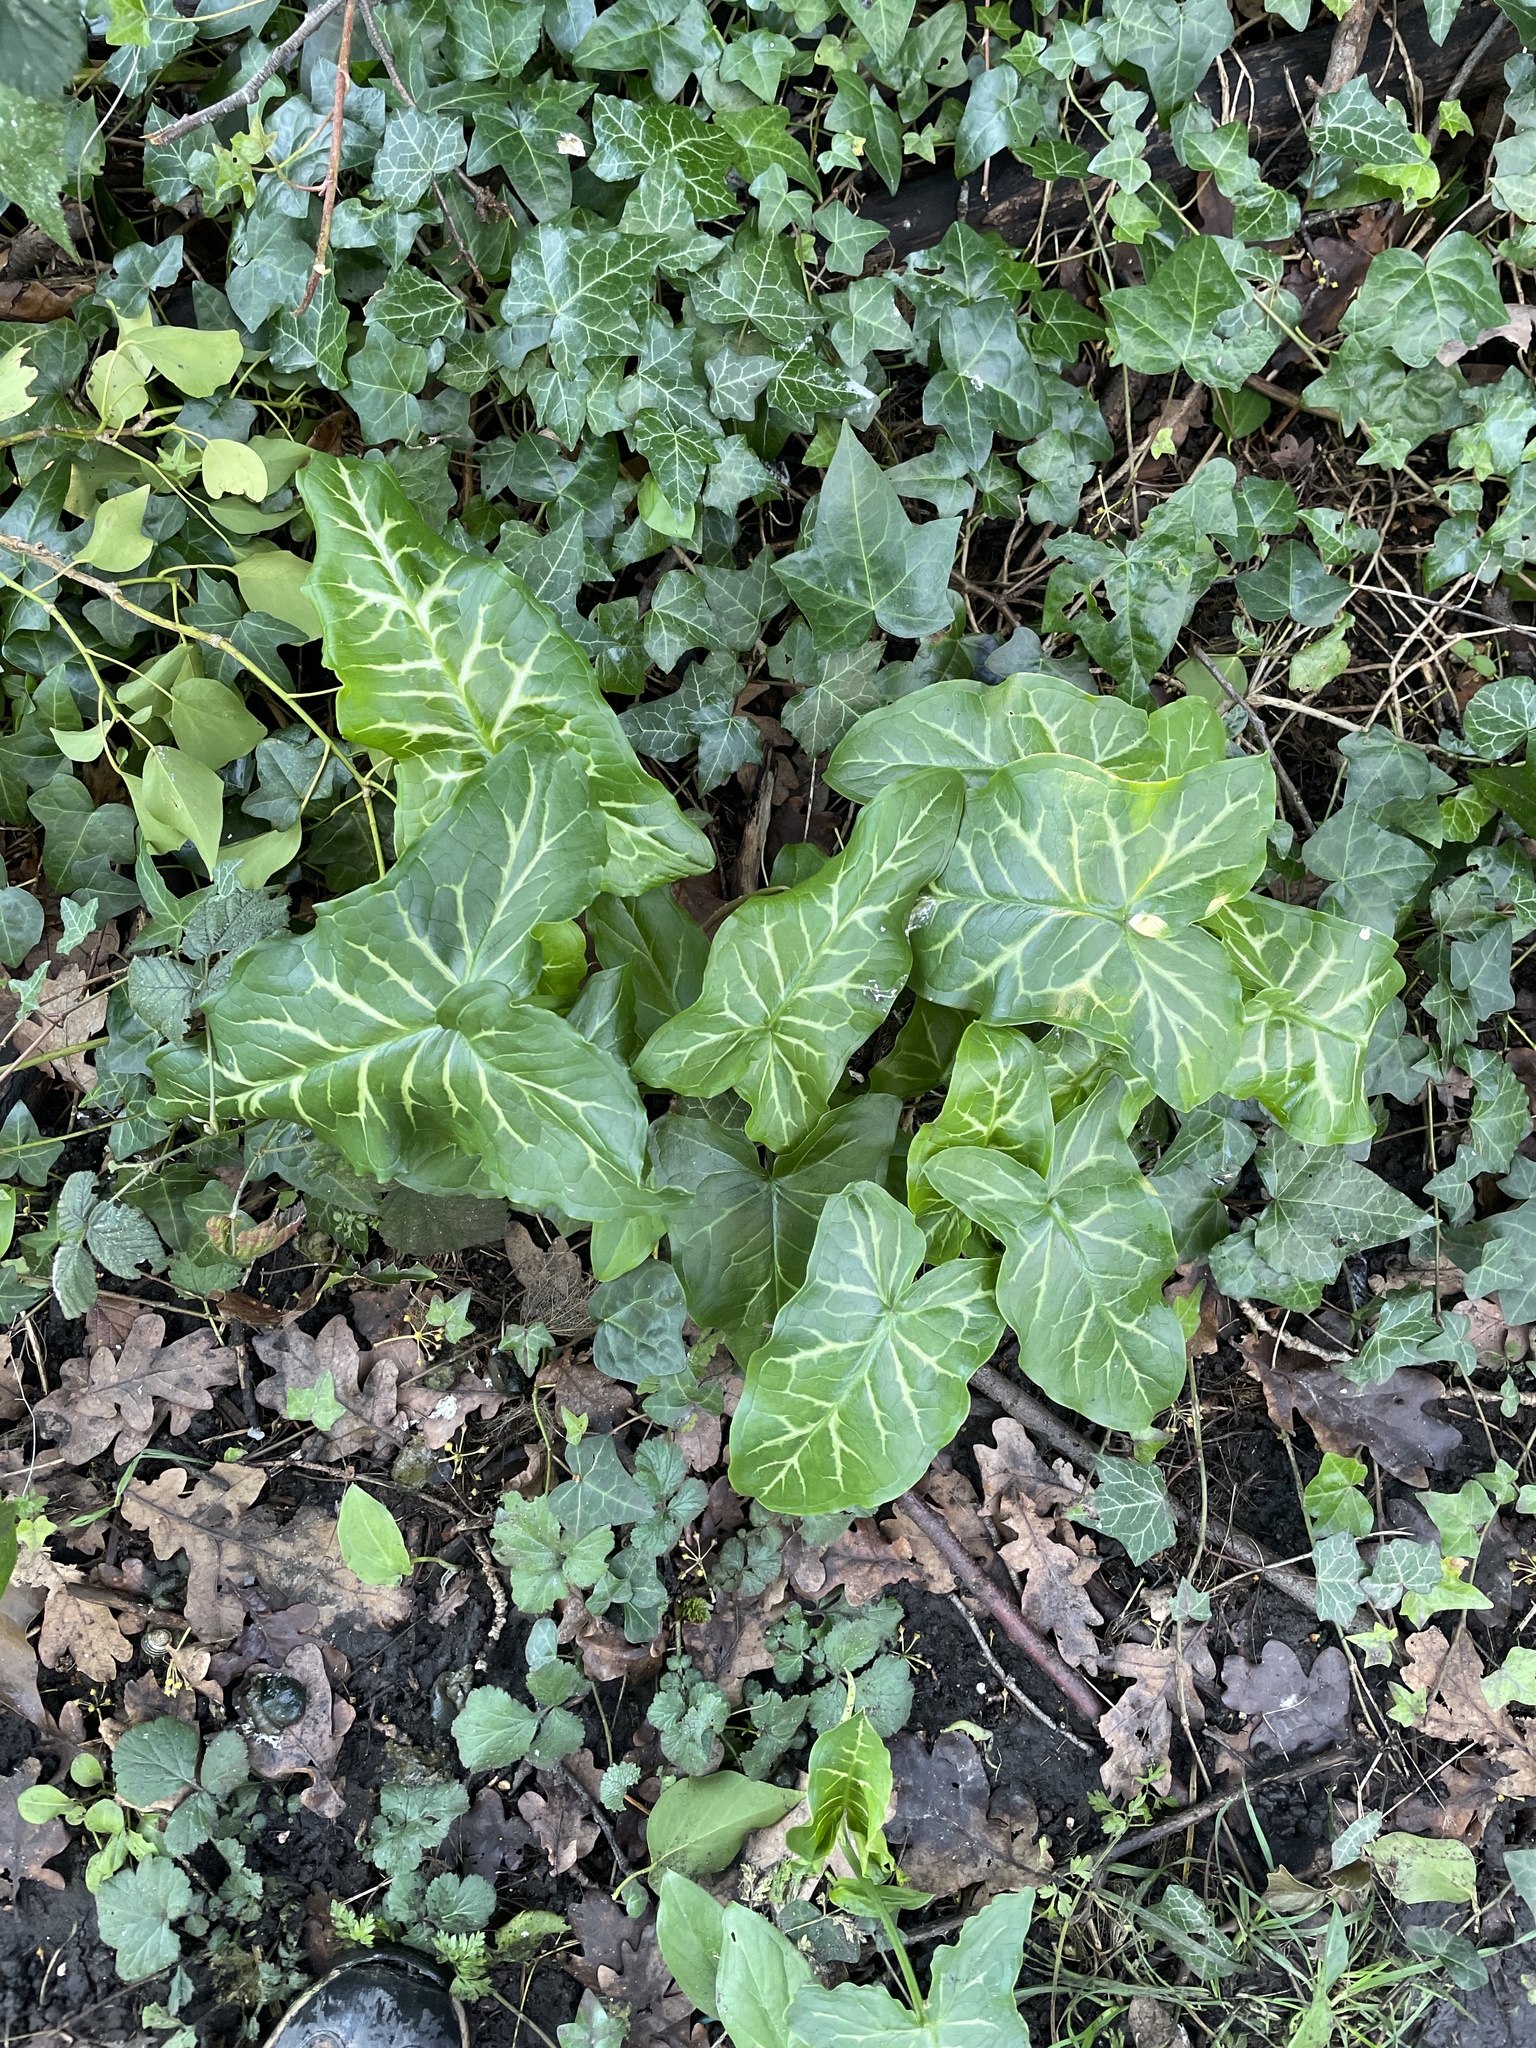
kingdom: Plantae
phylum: Tracheophyta
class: Liliopsida
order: Alismatales
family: Araceae
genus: Arum
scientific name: Arum italicum
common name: Italian lords-and-ladies
